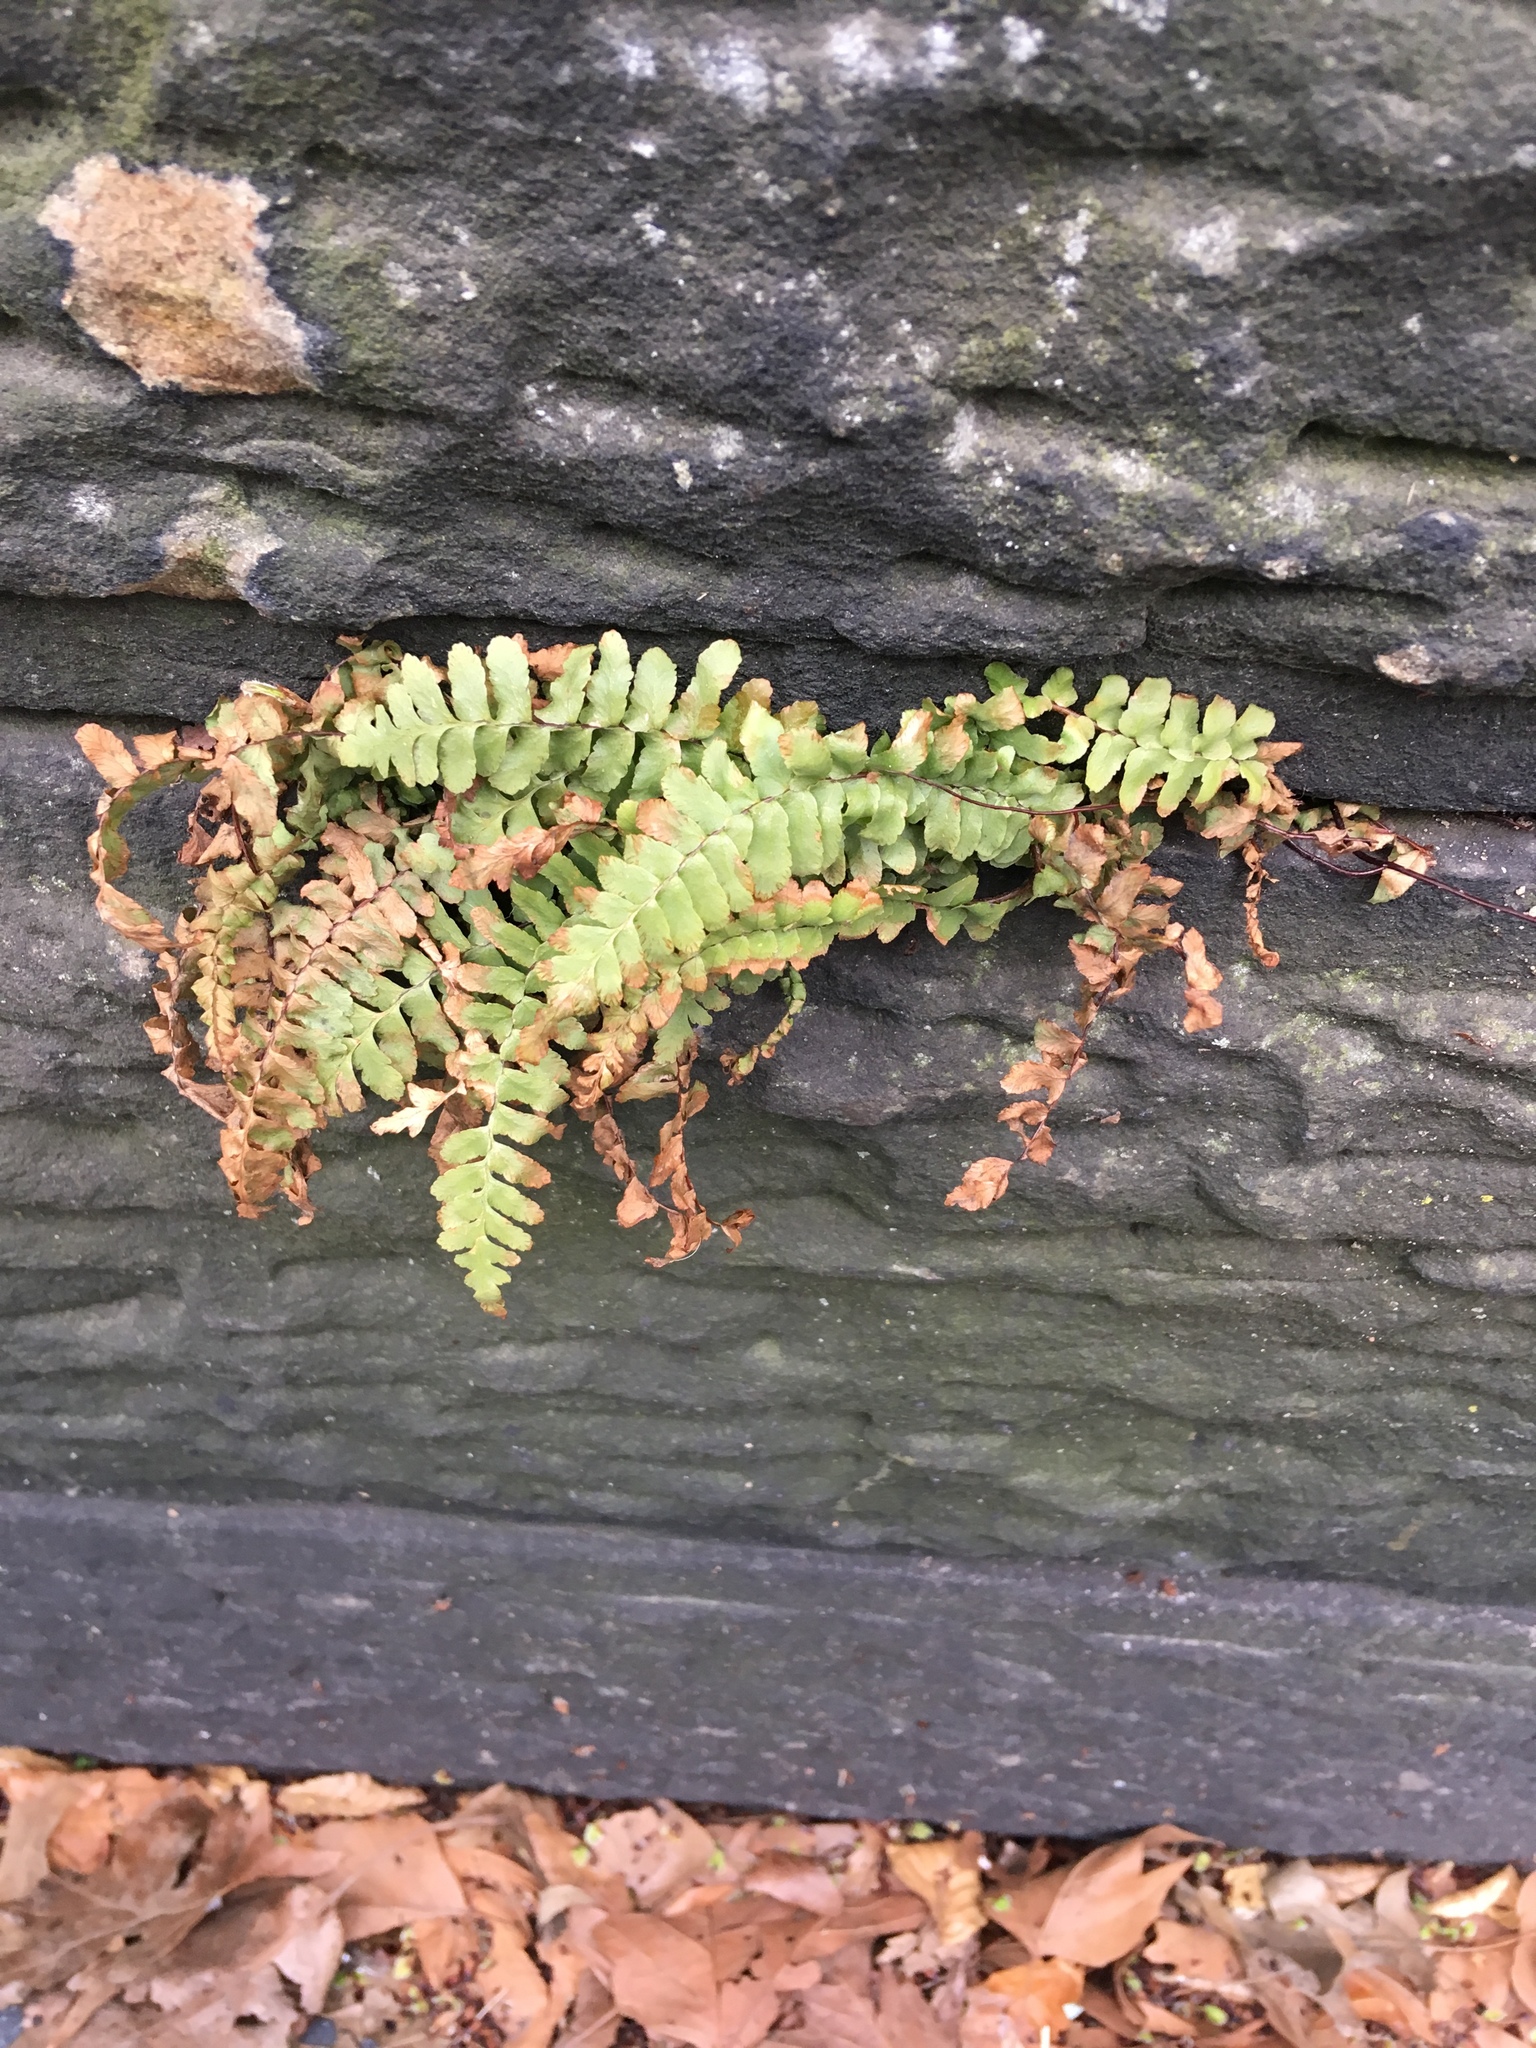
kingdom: Plantae
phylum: Tracheophyta
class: Polypodiopsida
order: Polypodiales
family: Aspleniaceae
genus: Asplenium
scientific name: Asplenium platyneuron
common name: Ebony spleenwort
